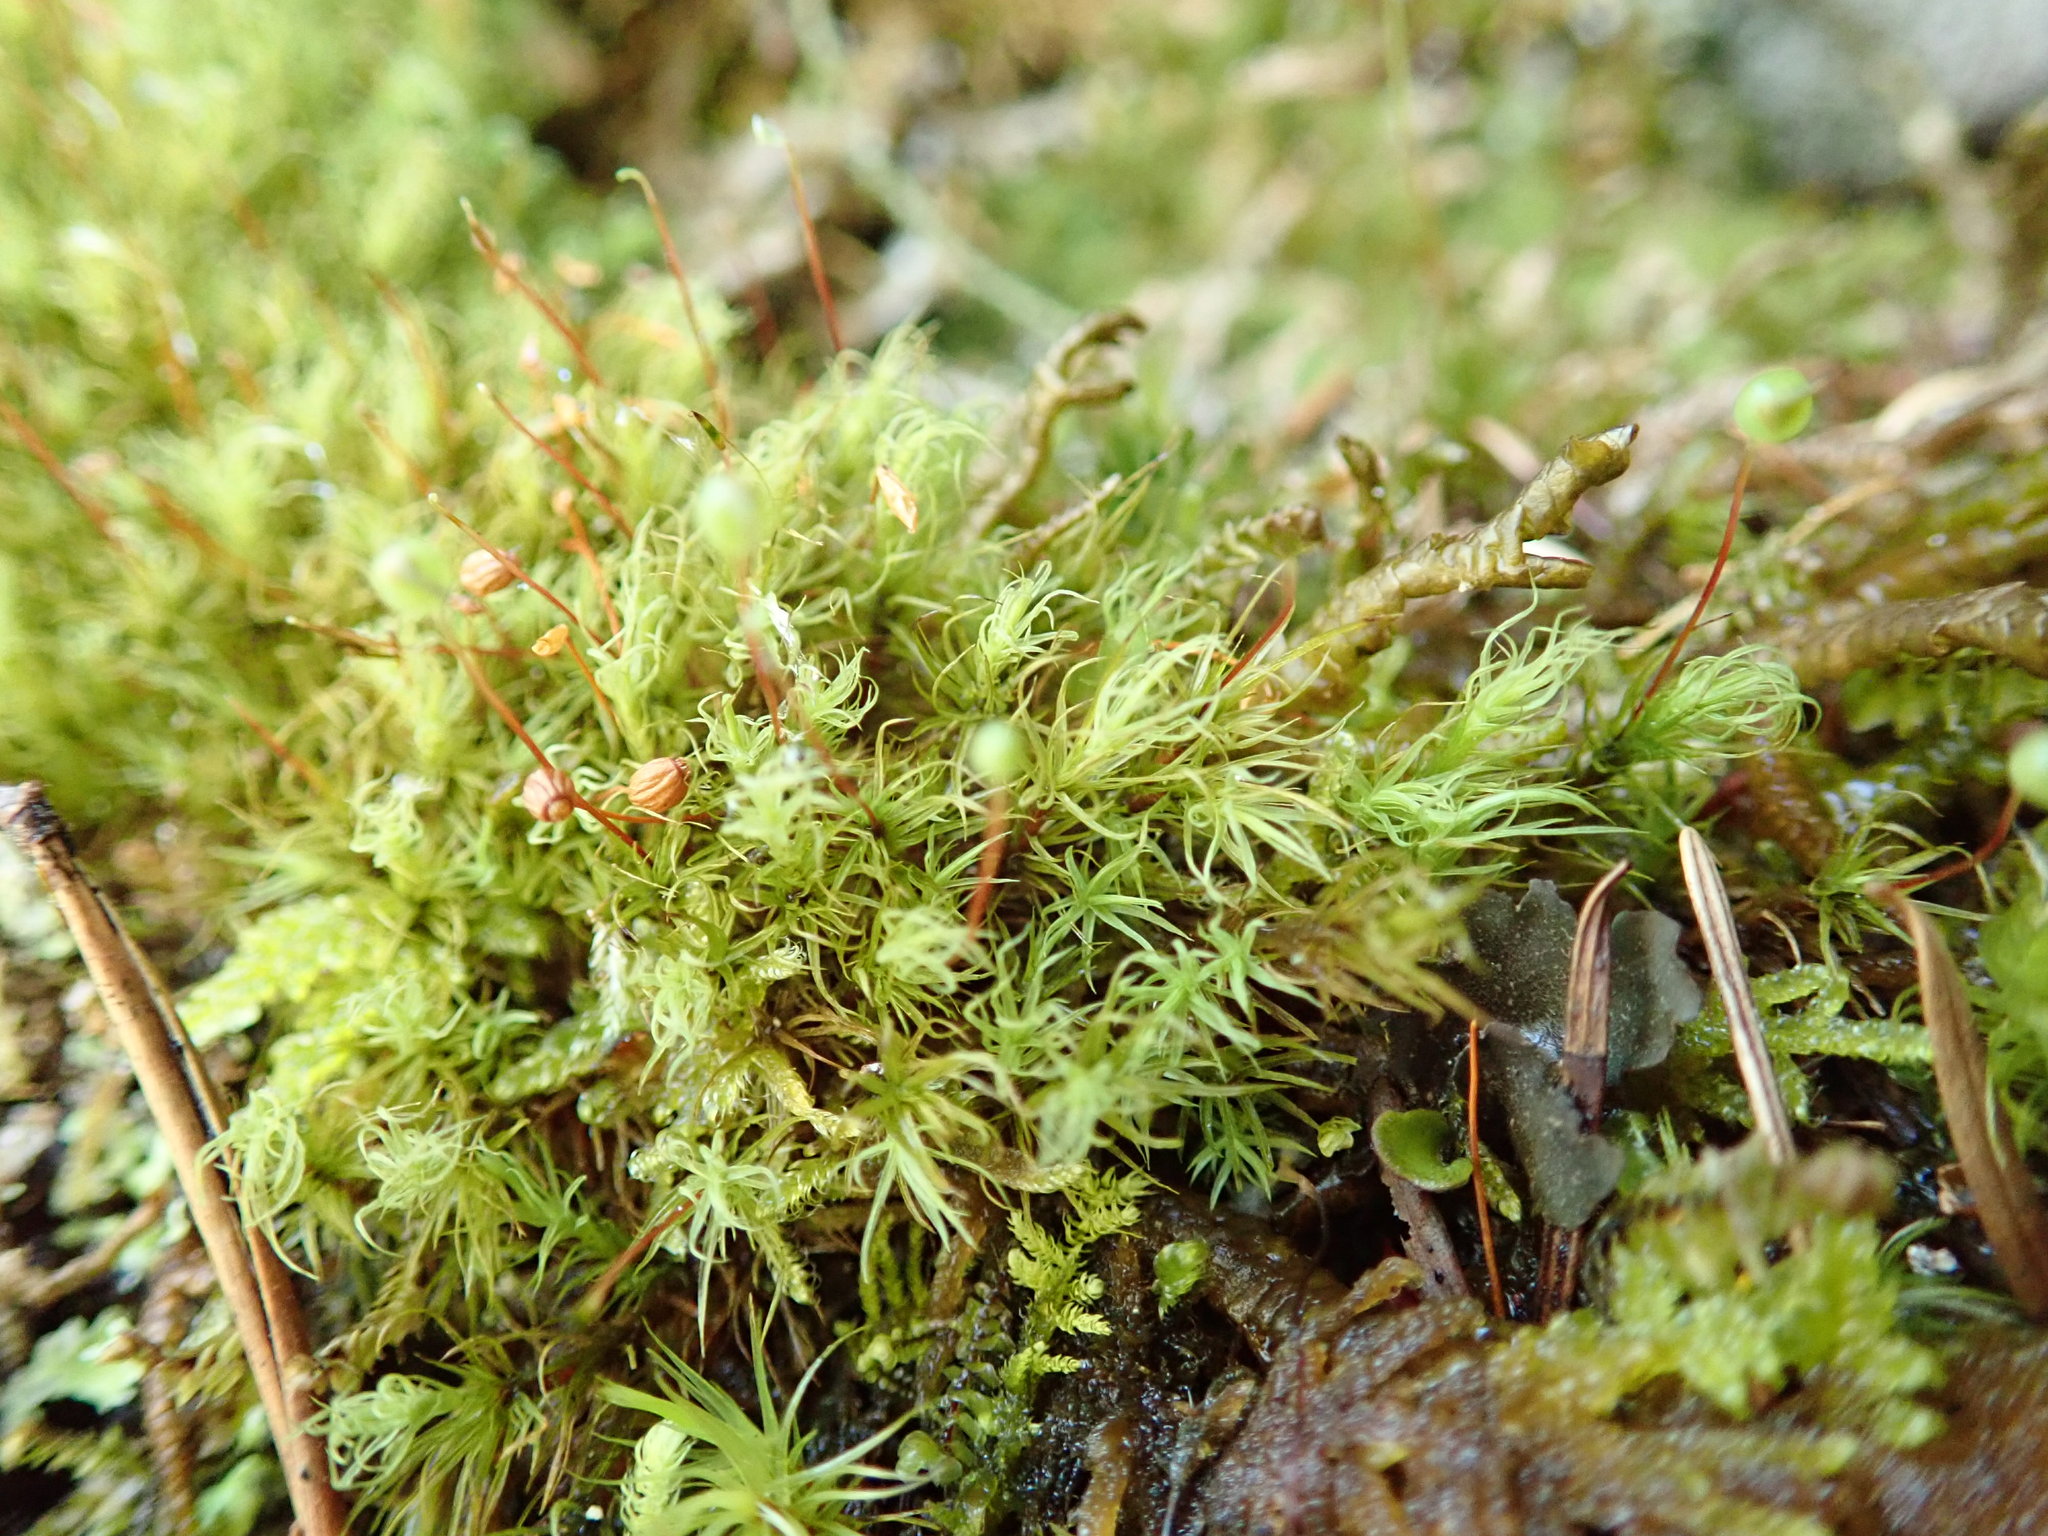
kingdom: Plantae
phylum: Bryophyta
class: Bryopsida
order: Bartramiales
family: Bartramiaceae
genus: Bartramia
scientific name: Bartramia ithyphylla
